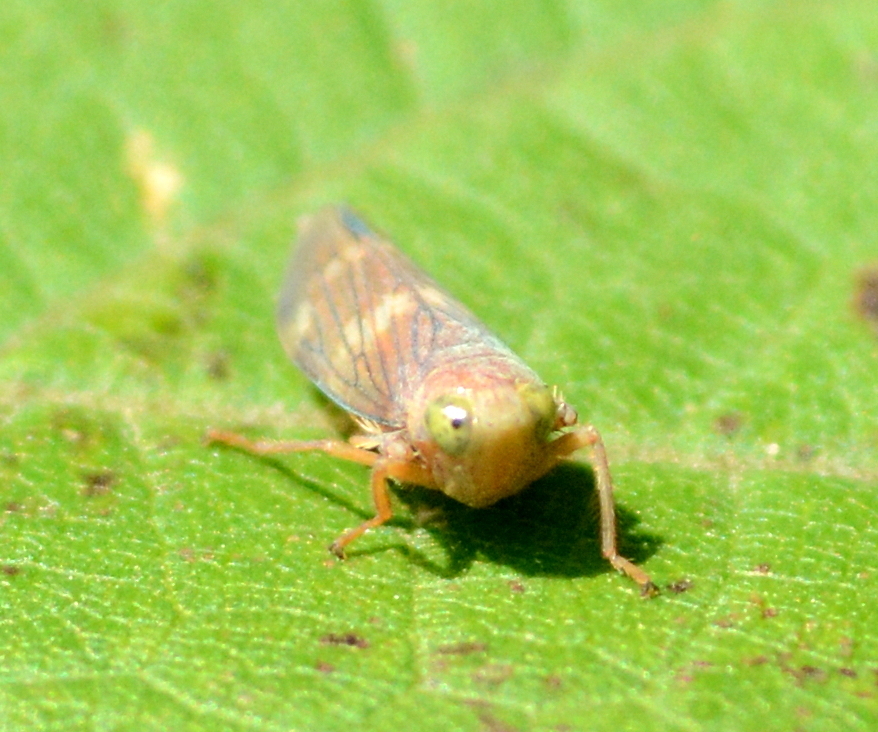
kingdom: Animalia
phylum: Arthropoda
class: Insecta
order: Hemiptera
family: Cicadellidae
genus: Jikradia
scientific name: Jikradia olitoria
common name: Coppery leafhopper
